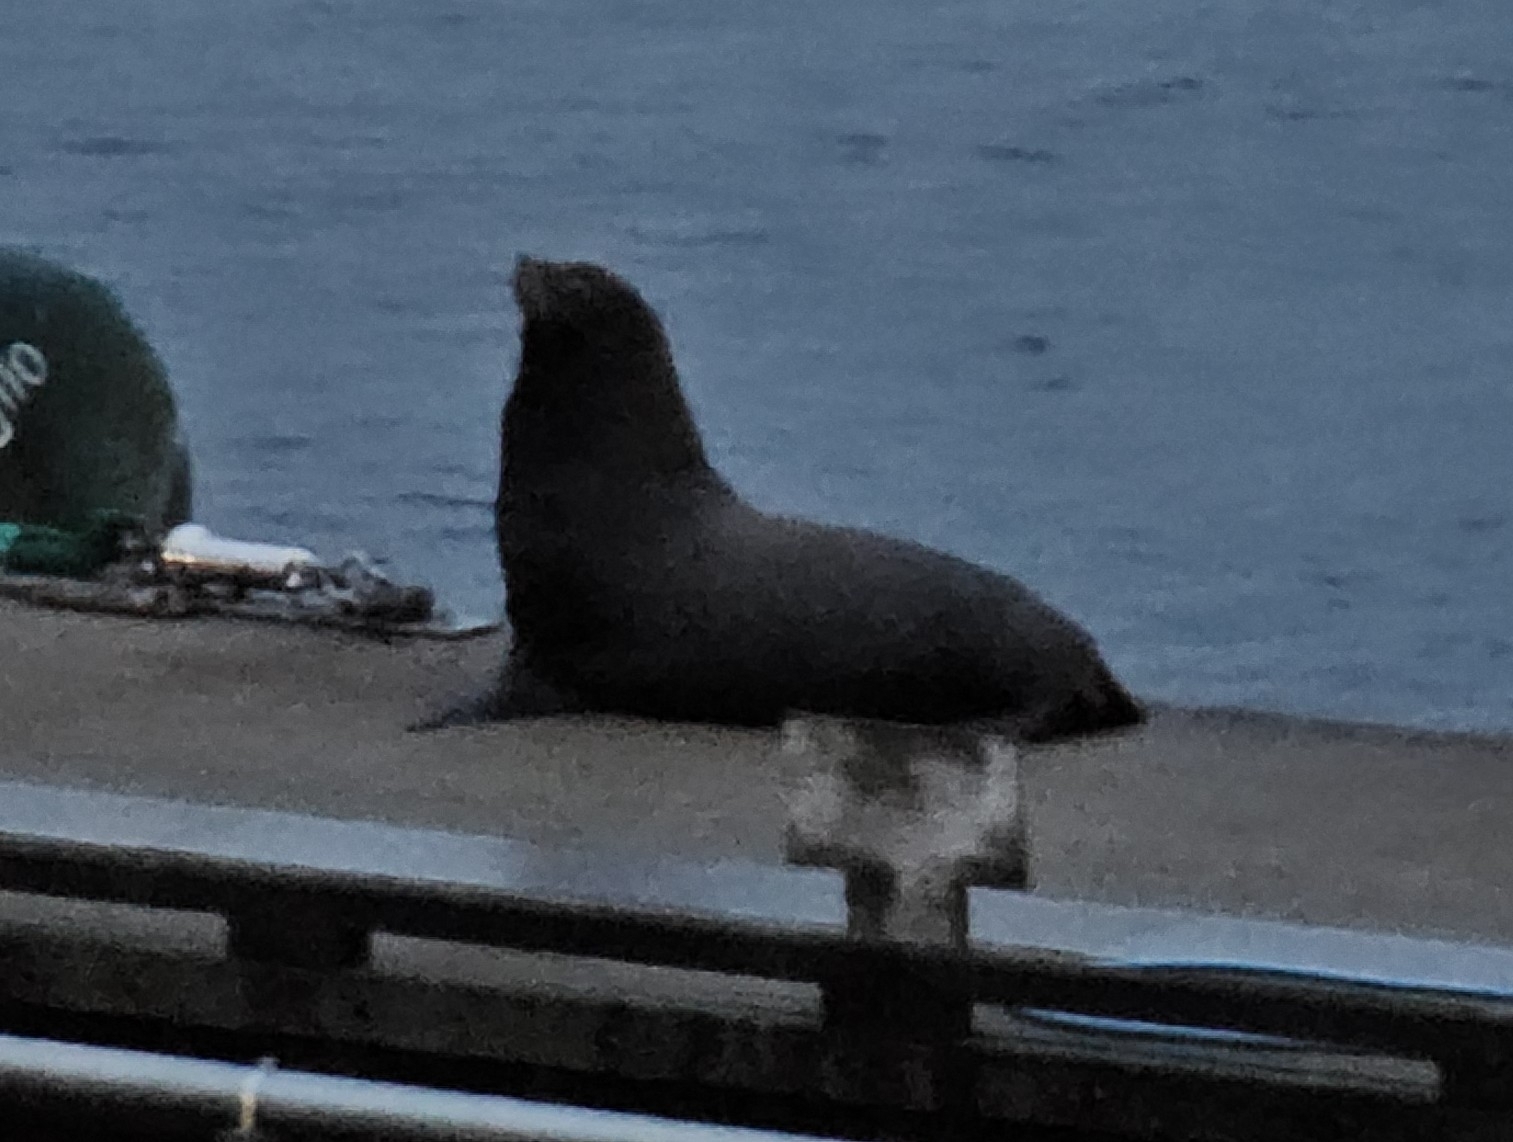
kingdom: Animalia
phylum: Chordata
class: Mammalia
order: Carnivora
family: Otariidae
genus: Zalophus
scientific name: Zalophus californianus
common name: California sea lion
